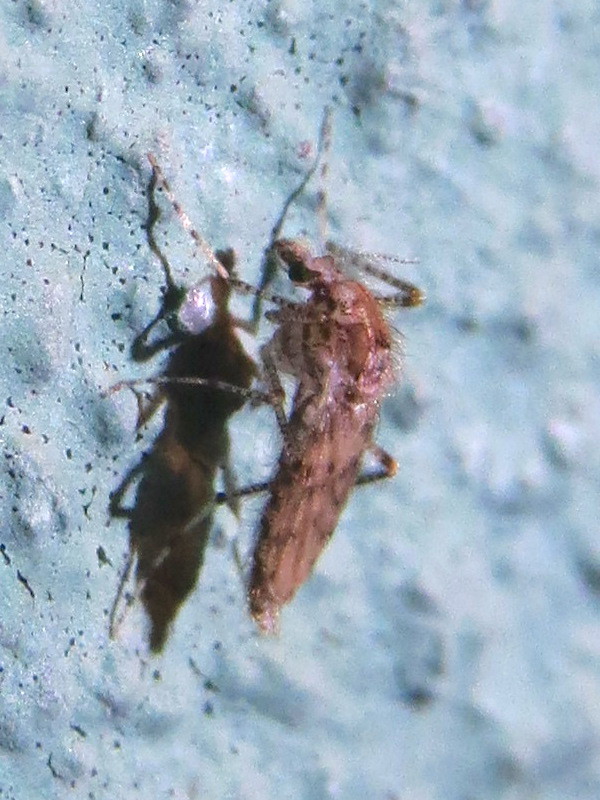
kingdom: Animalia
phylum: Arthropoda
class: Insecta
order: Diptera
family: Chaoboridae
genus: Chaoborus
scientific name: Chaoborus punctipennis
